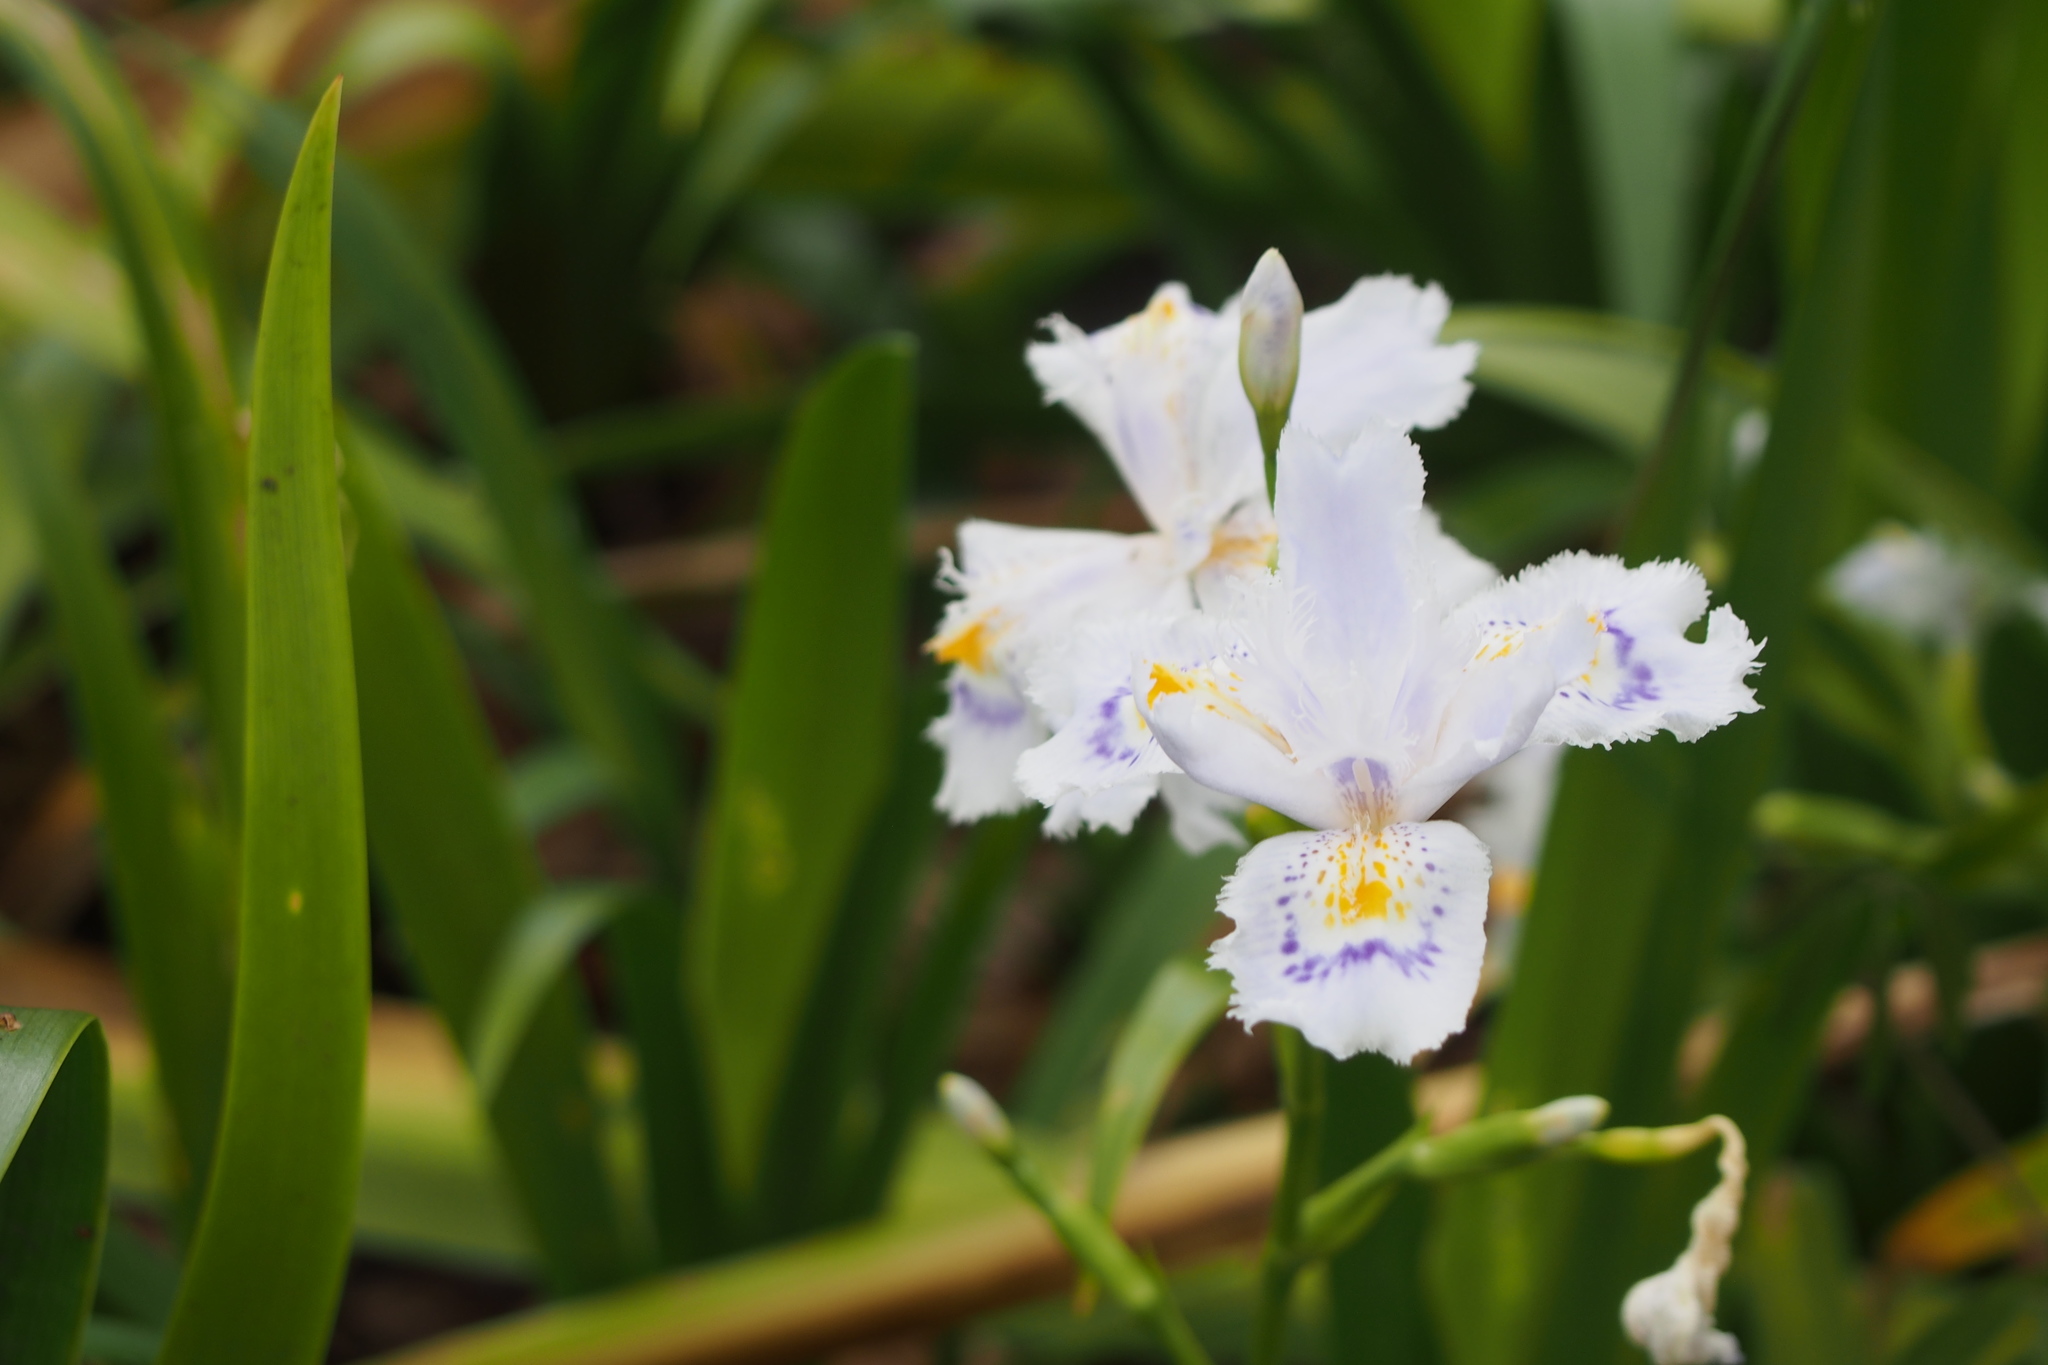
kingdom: Plantae
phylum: Tracheophyta
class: Liliopsida
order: Asparagales
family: Iridaceae
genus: Iris
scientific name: Iris japonica
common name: Butterfly-flower
